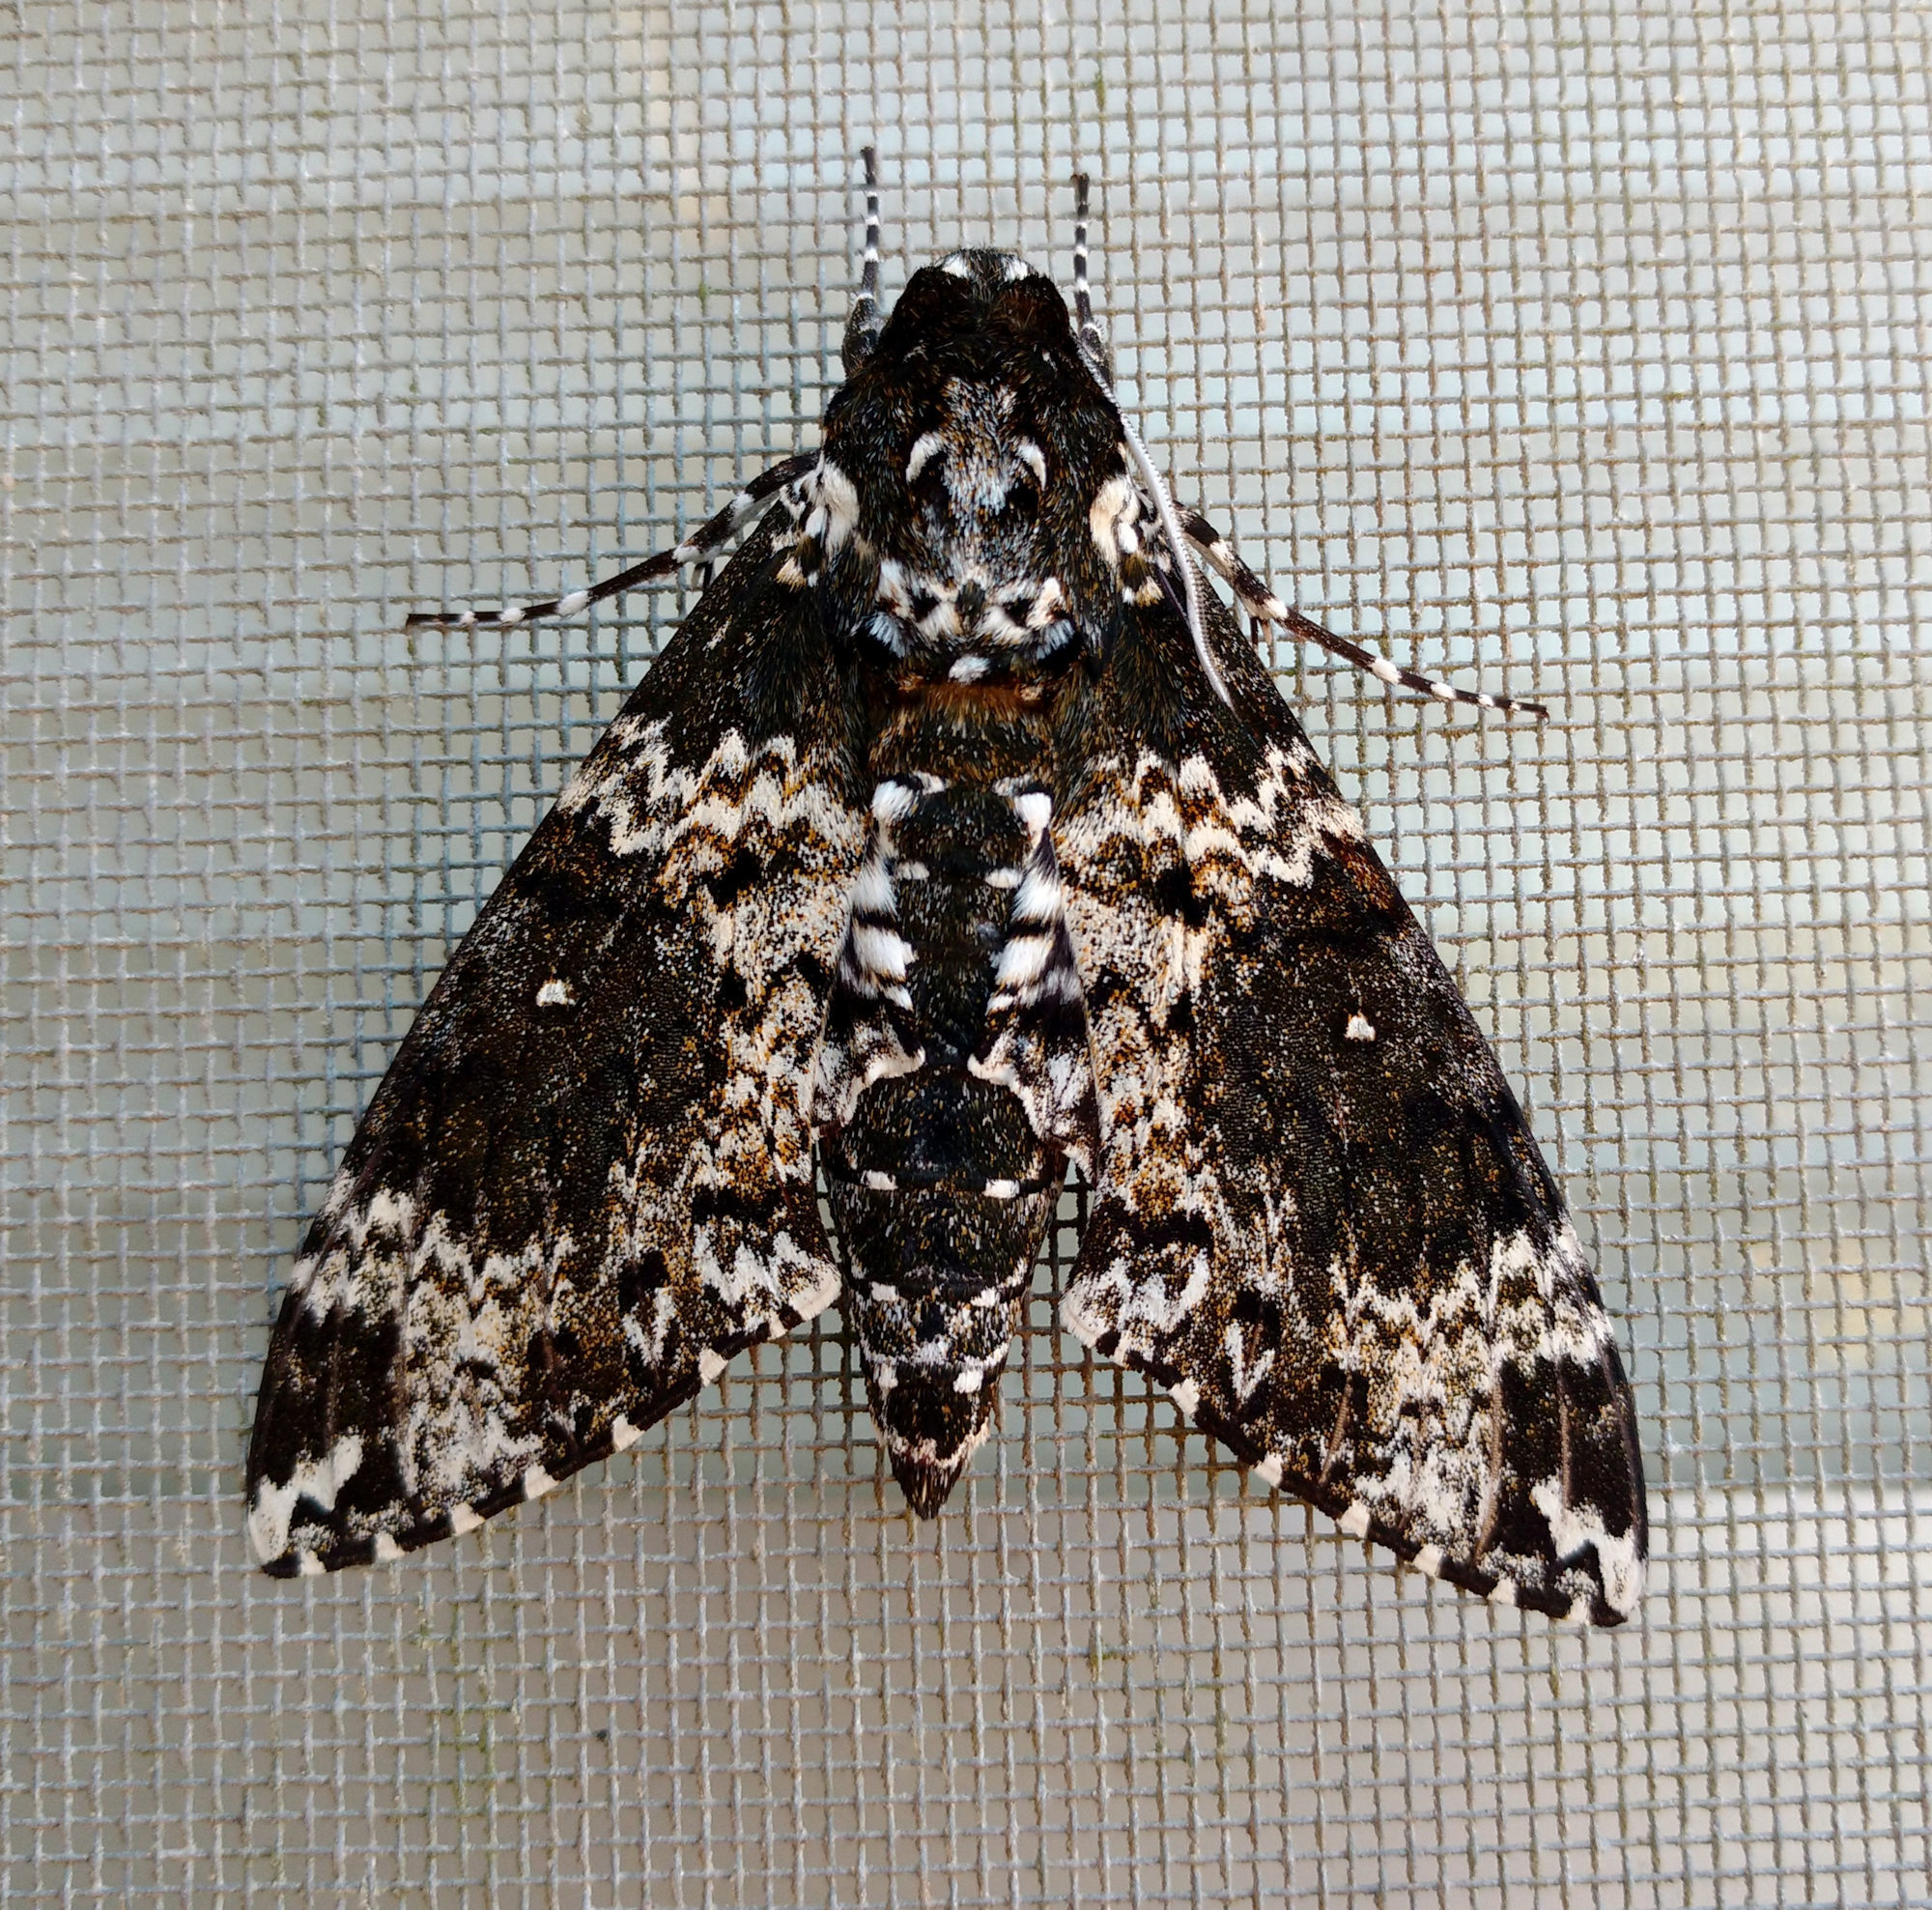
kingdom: Animalia
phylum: Arthropoda
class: Insecta
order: Lepidoptera
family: Sphingidae
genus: Manduca
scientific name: Manduca rustica
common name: Rustic sphinx
